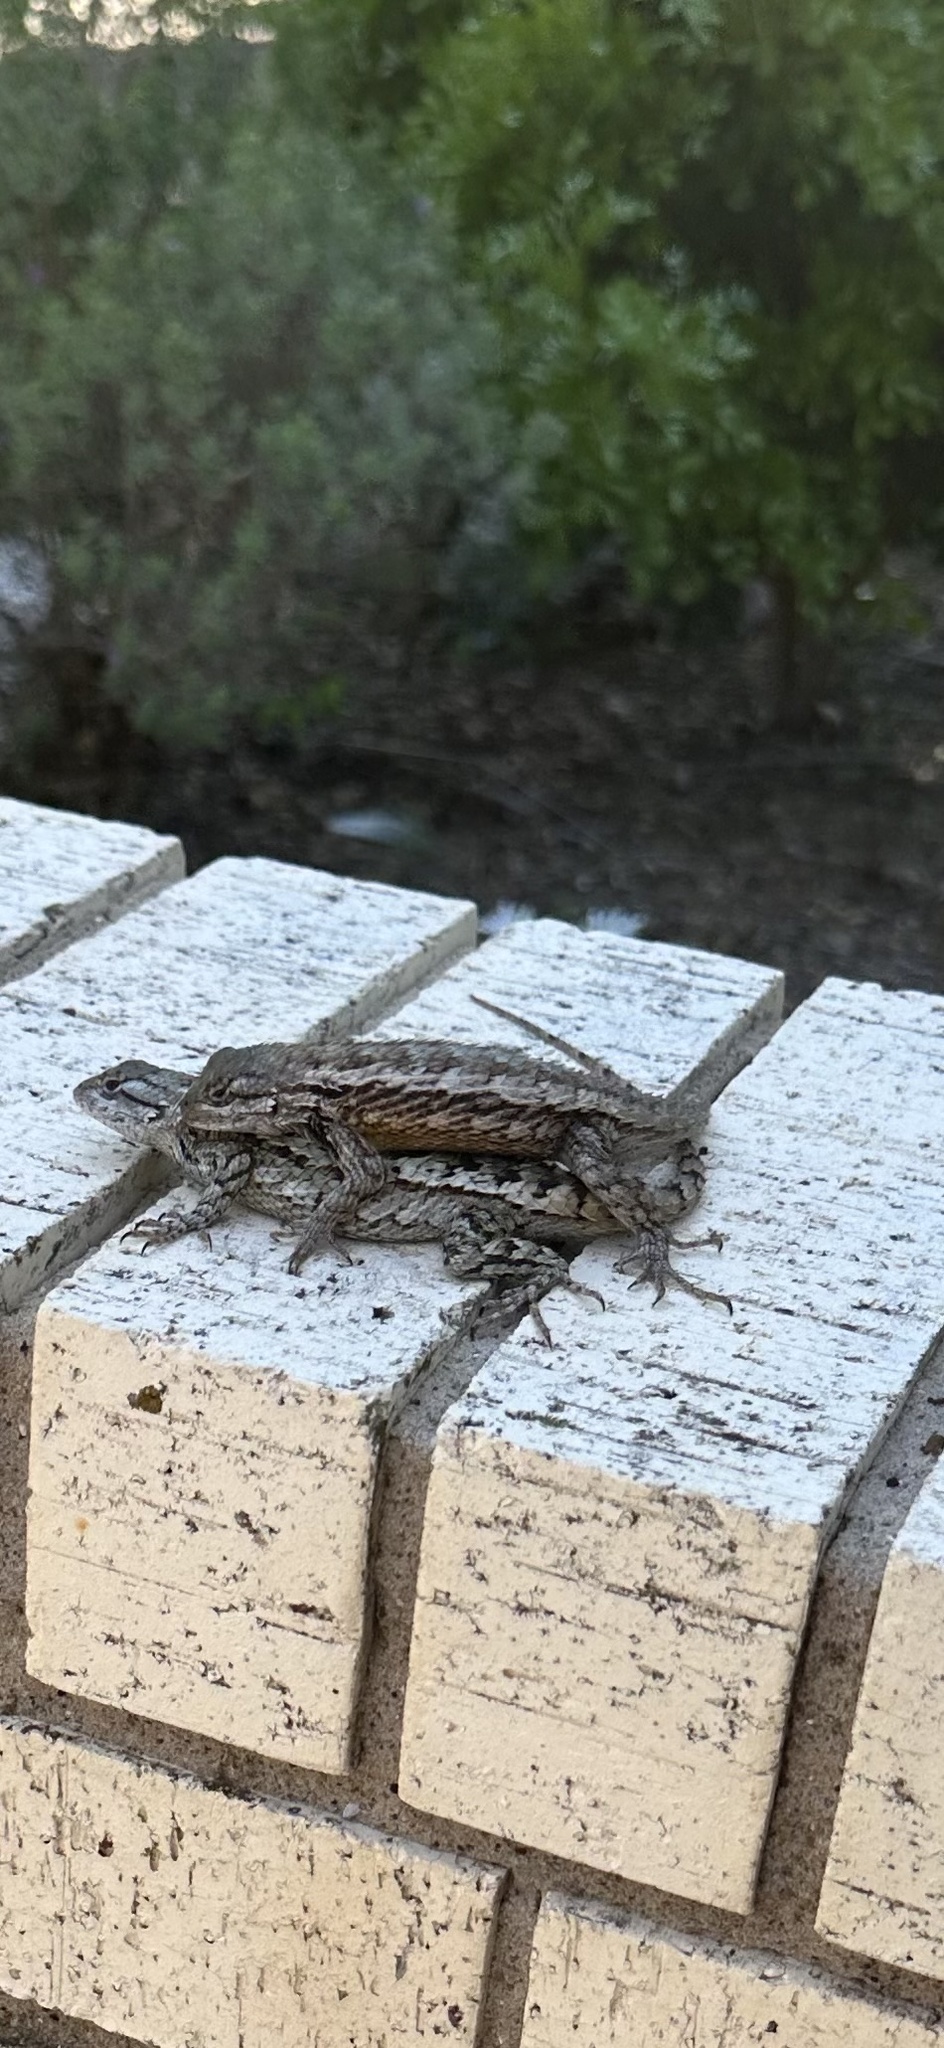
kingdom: Animalia
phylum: Chordata
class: Squamata
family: Phrynosomatidae
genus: Sceloporus
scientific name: Sceloporus olivaceus
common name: Texas spiny lizard
